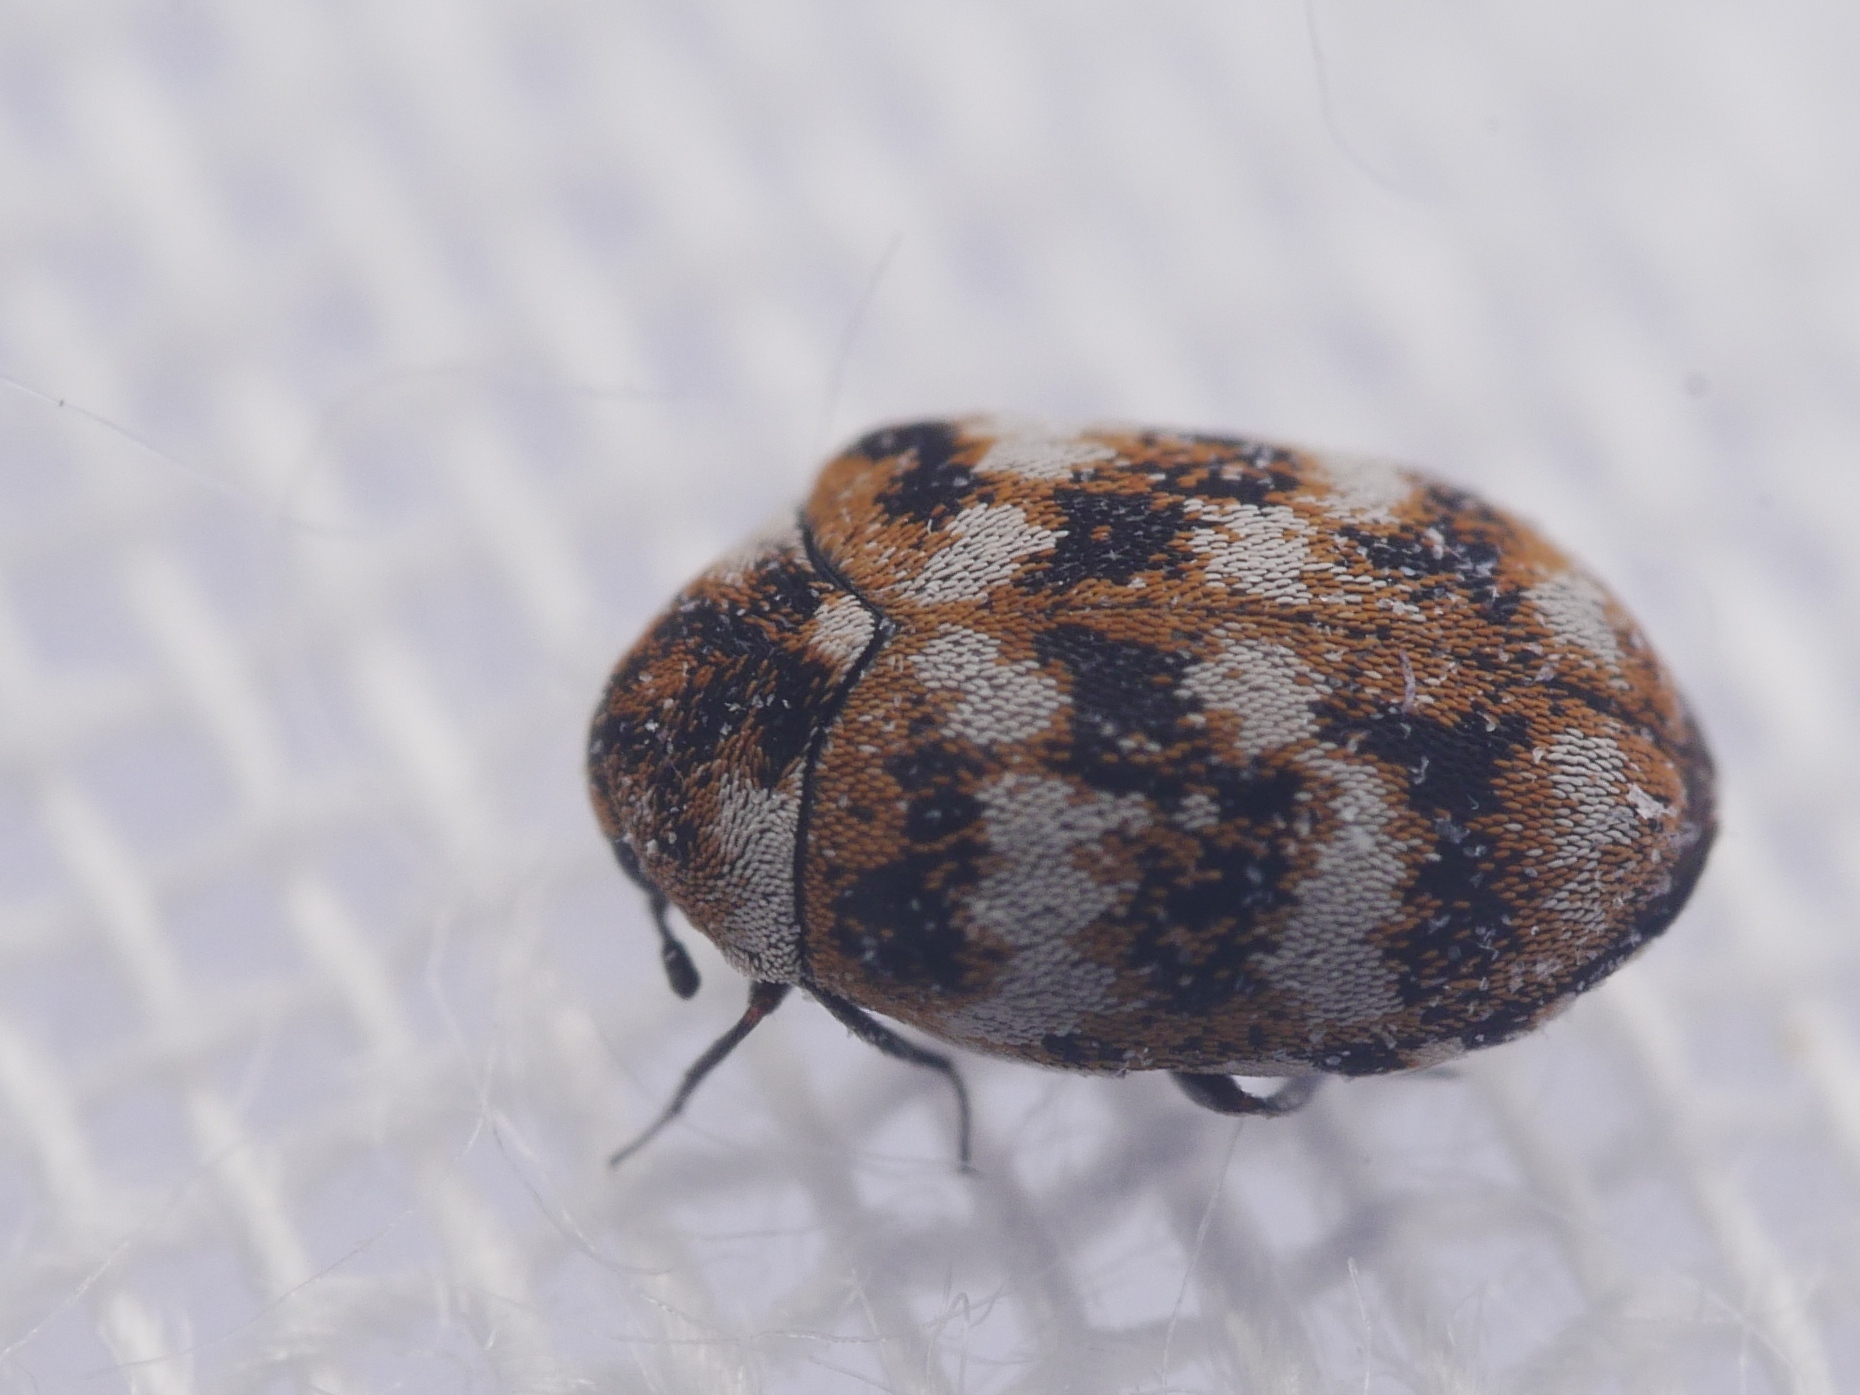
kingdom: Animalia
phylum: Arthropoda
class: Insecta
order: Coleoptera
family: Dermestidae
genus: Anthrenus
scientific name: Anthrenus verbasci
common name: Varied carpet beetle
